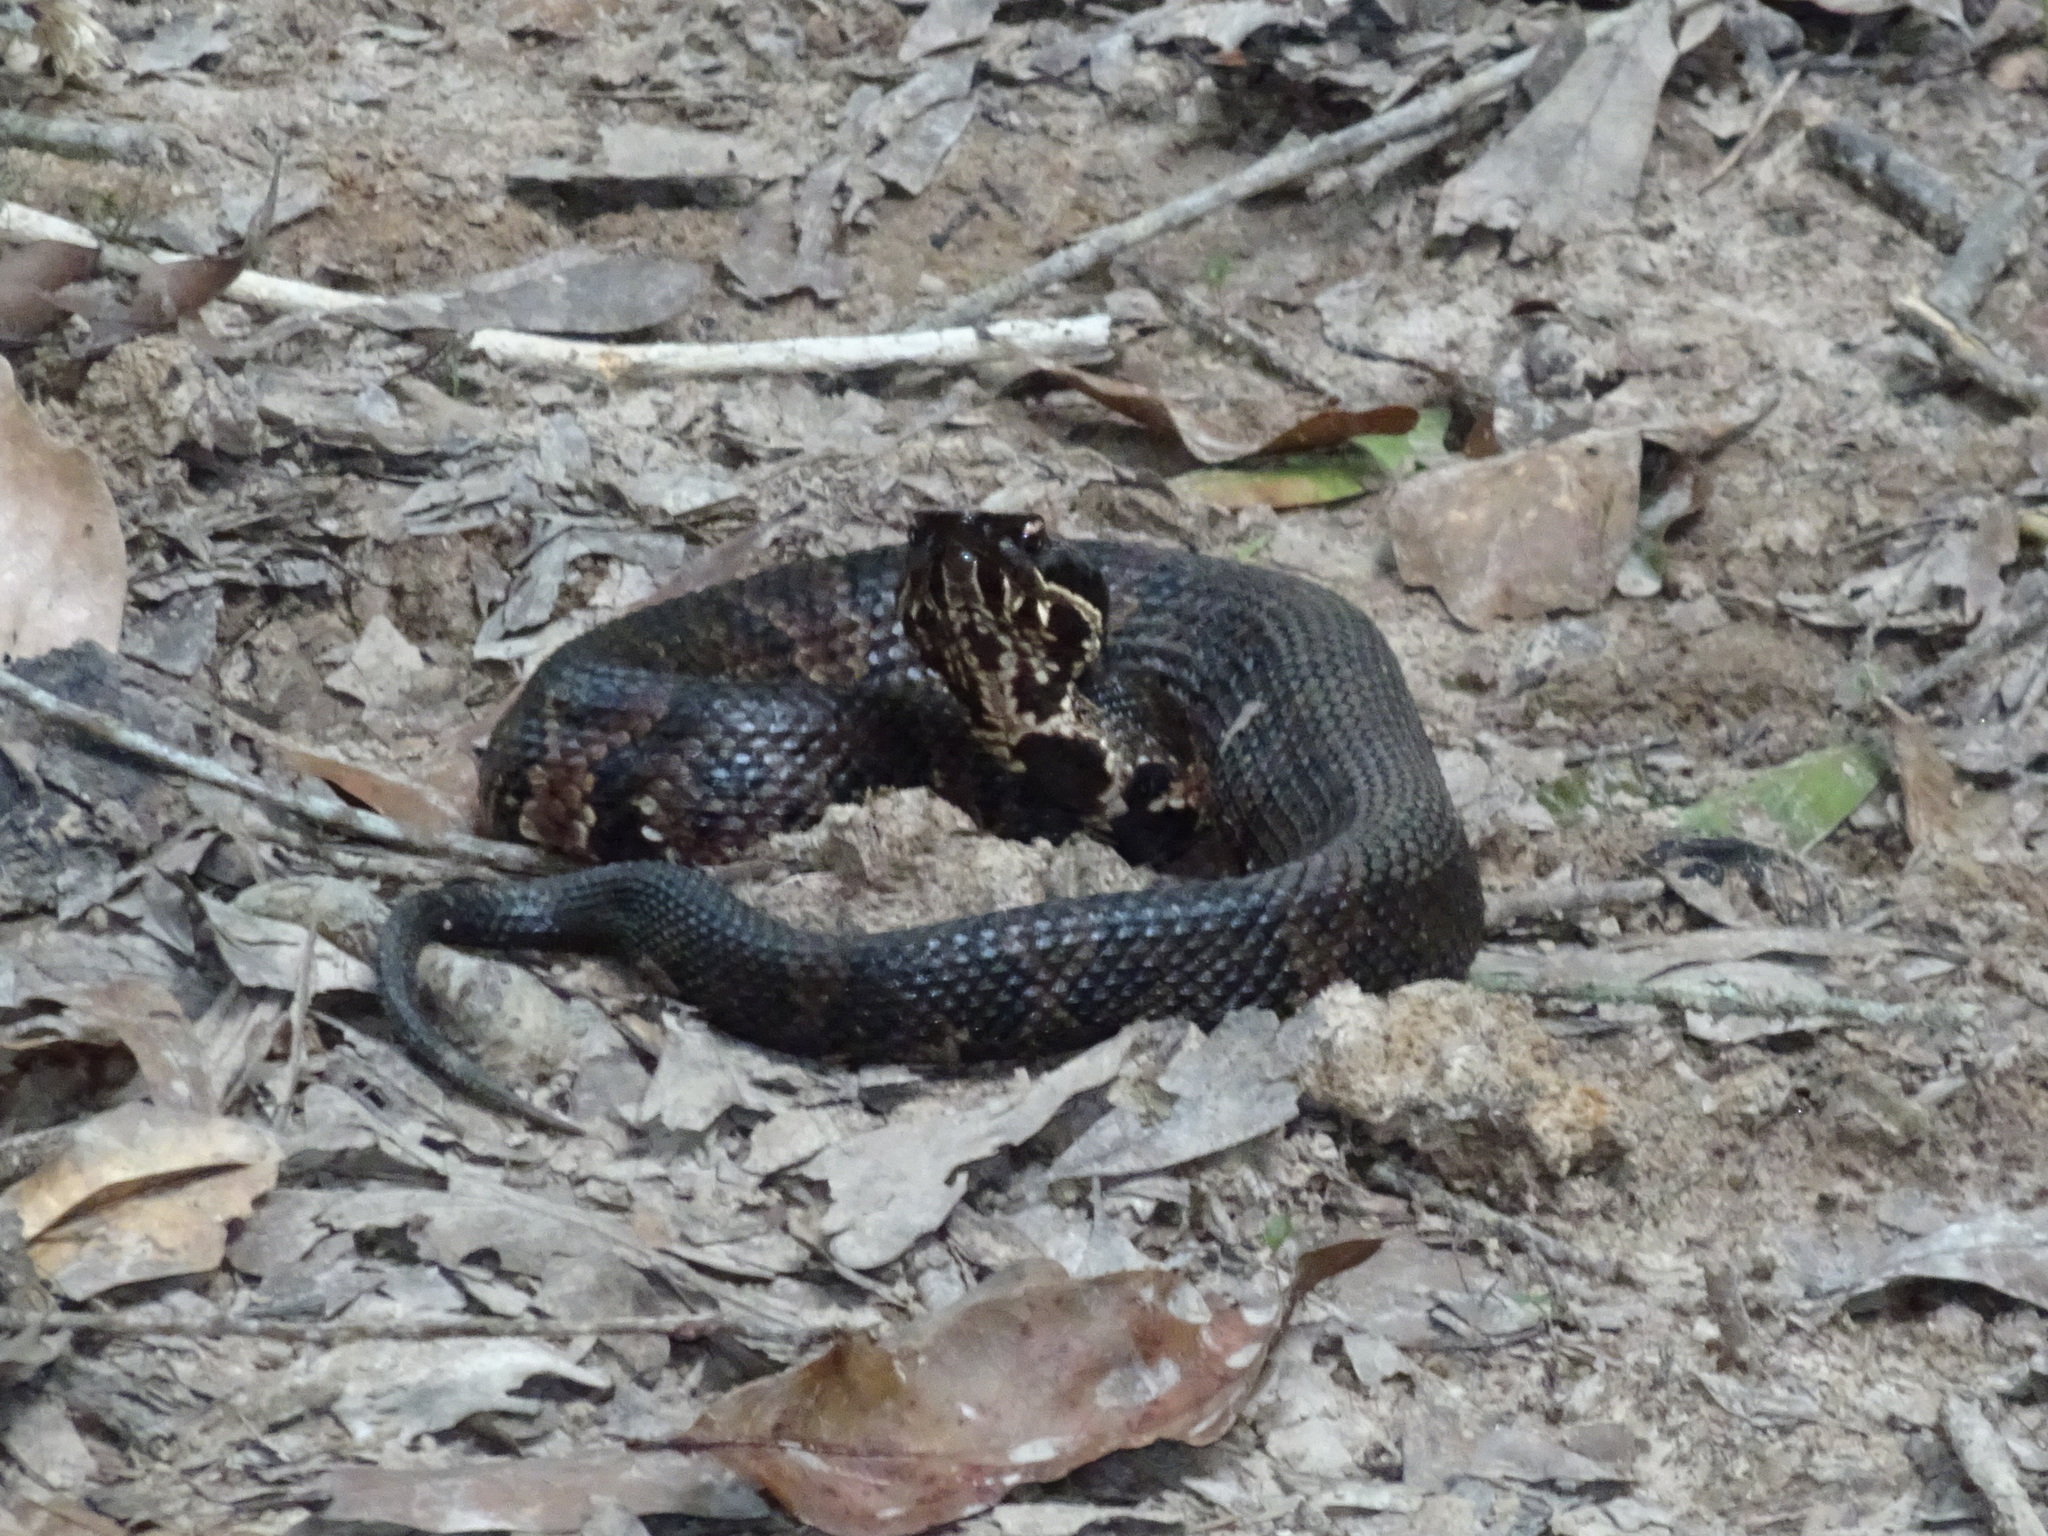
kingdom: Animalia
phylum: Chordata
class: Squamata
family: Viperidae
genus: Agkistrodon
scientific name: Agkistrodon piscivorus
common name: Cottonmouth
